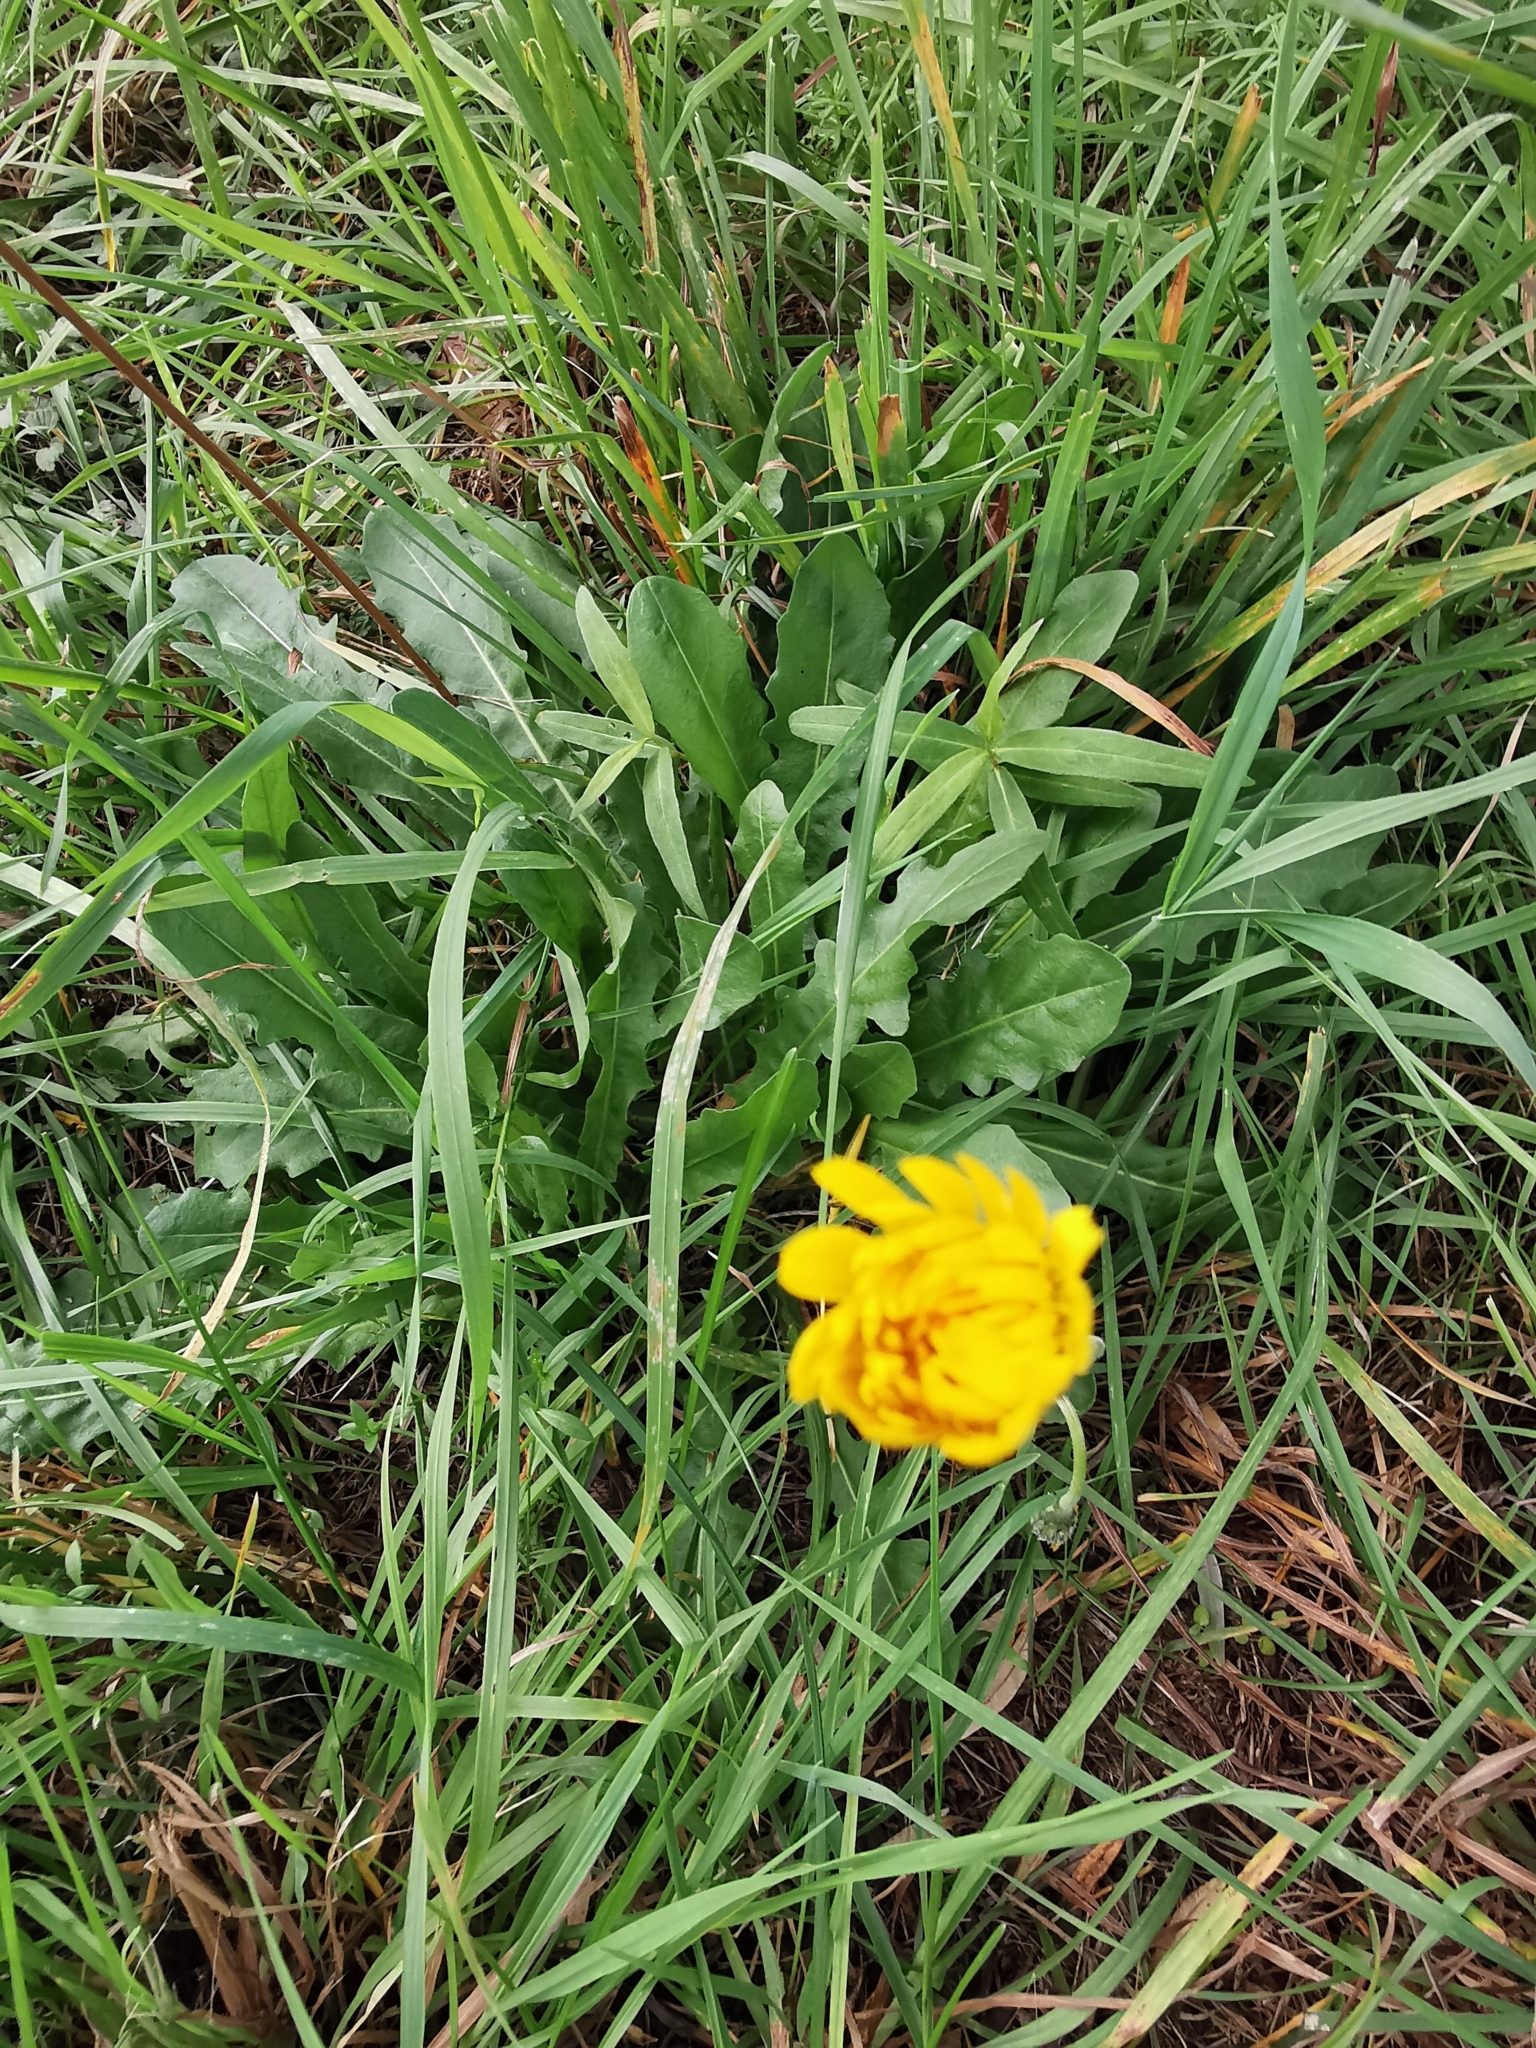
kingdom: Plantae
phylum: Tracheophyta
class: Magnoliopsida
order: Asterales
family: Asteraceae
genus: Leontodon
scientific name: Leontodon hispidus
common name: Rough hawkbit
